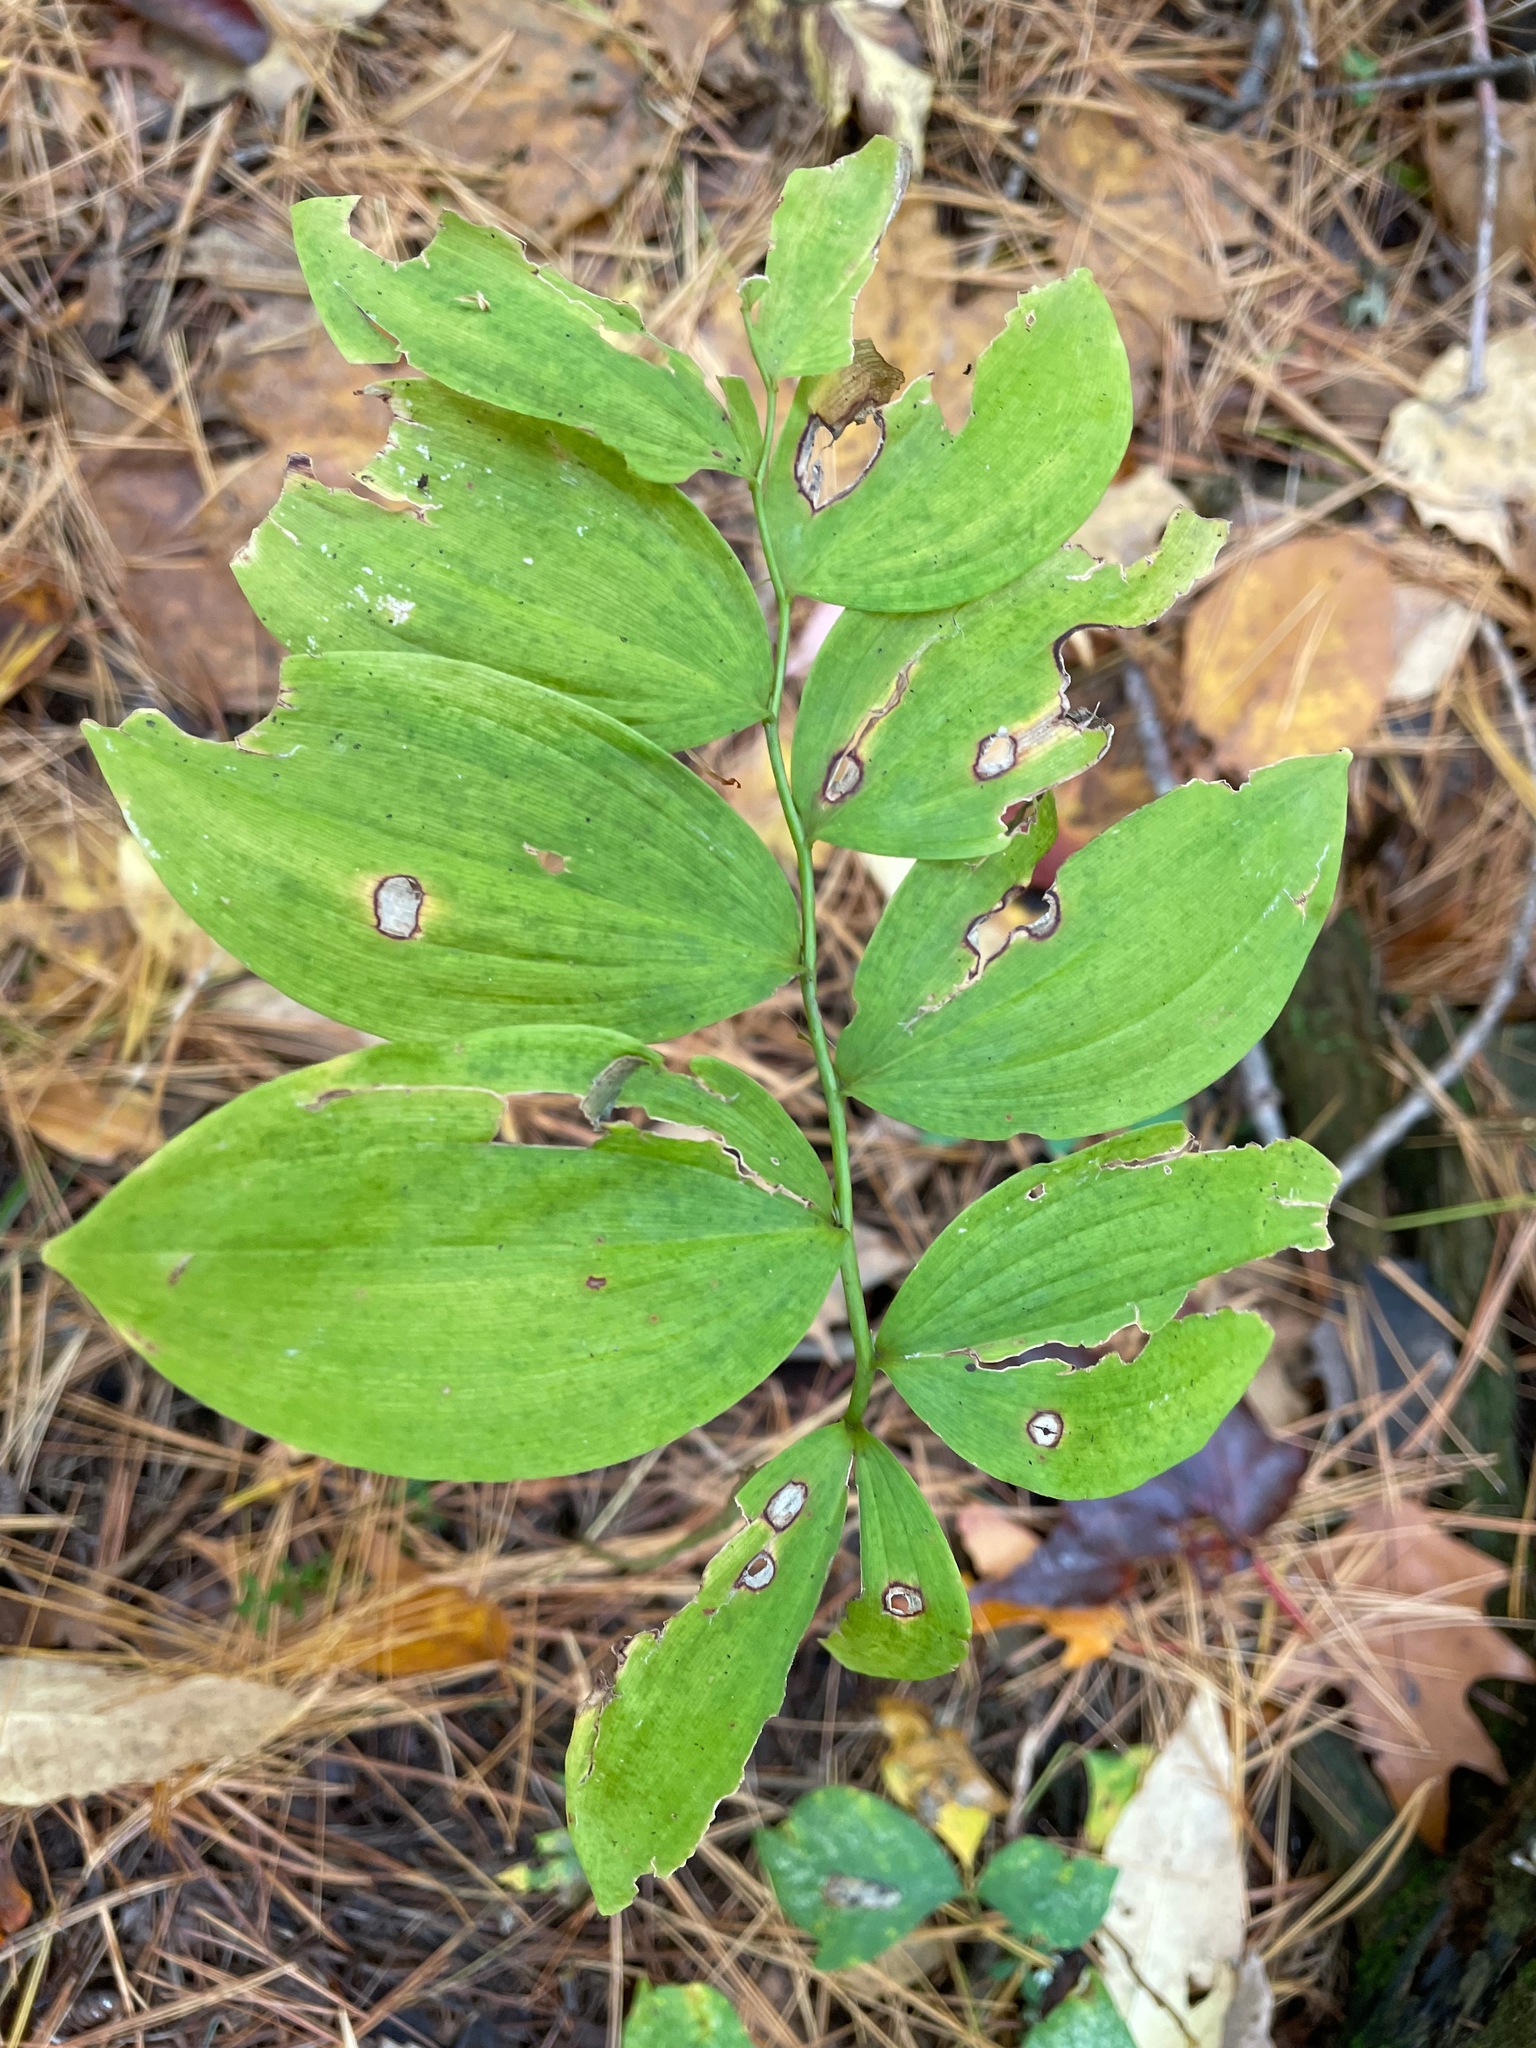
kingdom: Plantae
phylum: Tracheophyta
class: Liliopsida
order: Asparagales
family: Asparagaceae
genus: Polygonatum
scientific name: Polygonatum pubescens
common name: Downy solomon's seal
